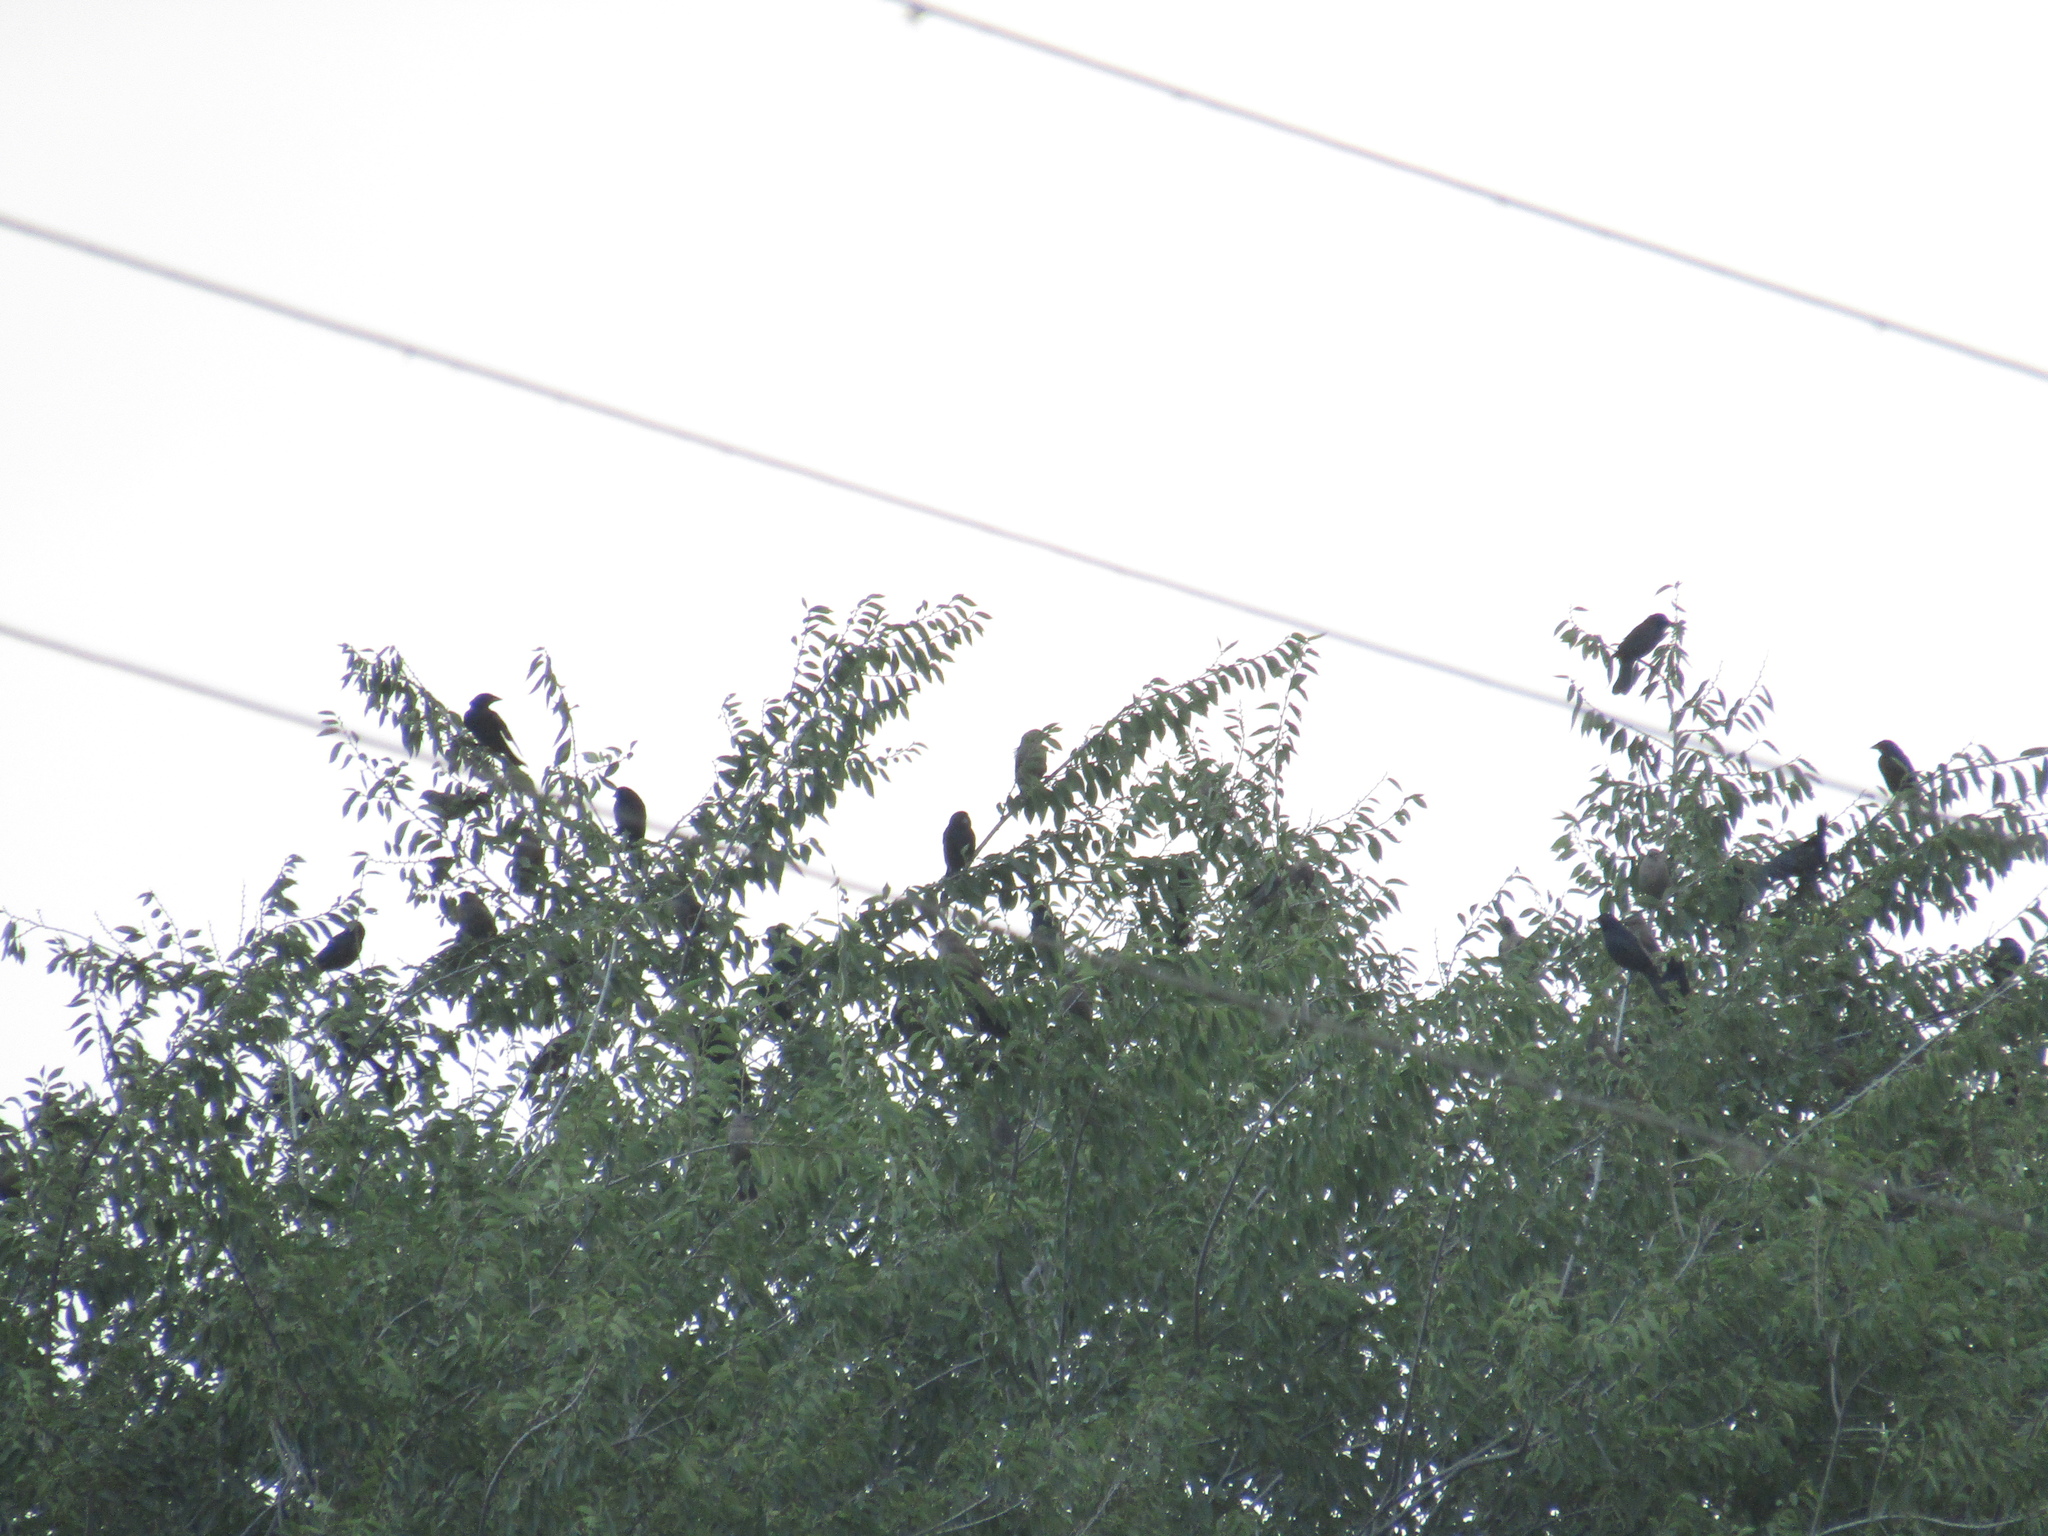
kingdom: Animalia
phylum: Chordata
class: Aves
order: Passeriformes
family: Icteridae
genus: Molothrus
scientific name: Molothrus bonariensis
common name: Shiny cowbird
